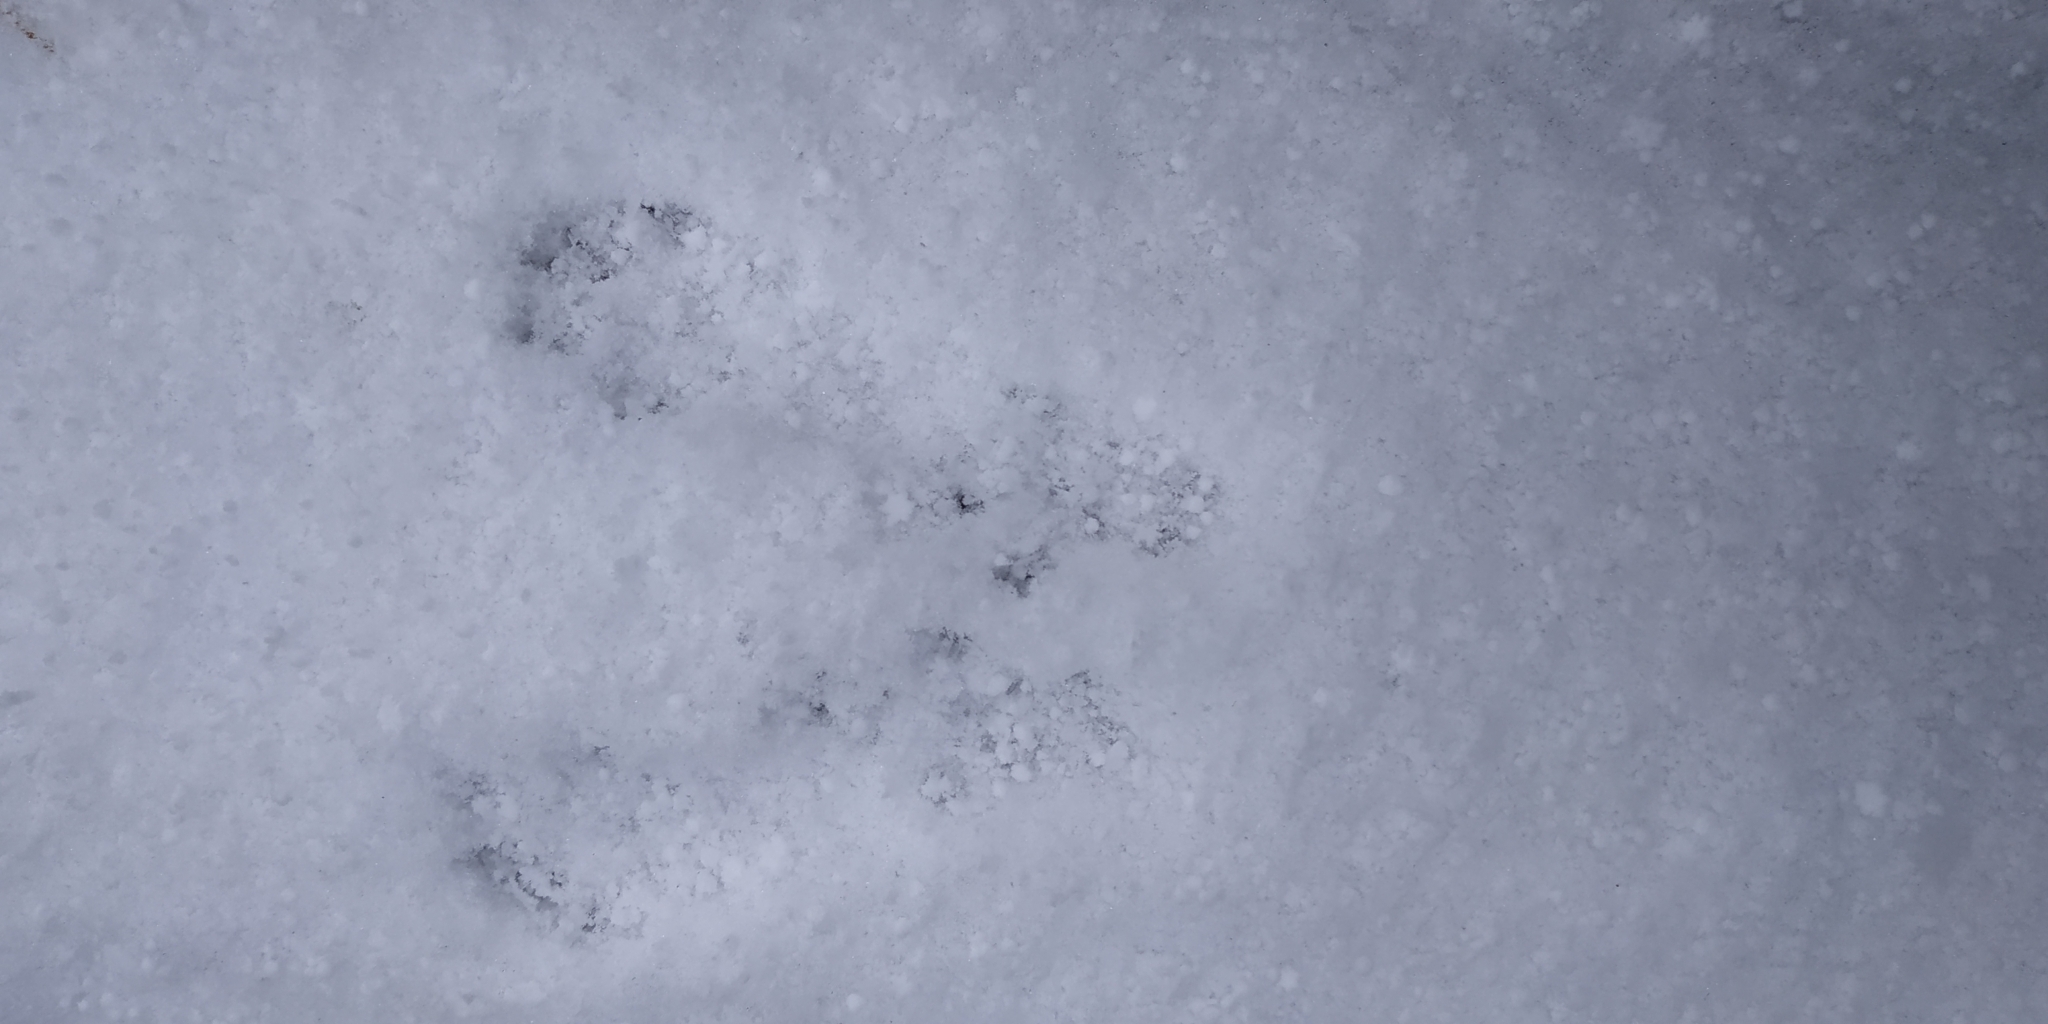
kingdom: Animalia
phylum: Chordata
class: Mammalia
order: Rodentia
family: Sciuridae
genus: Sciurus
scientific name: Sciurus vulgaris
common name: Eurasian red squirrel
